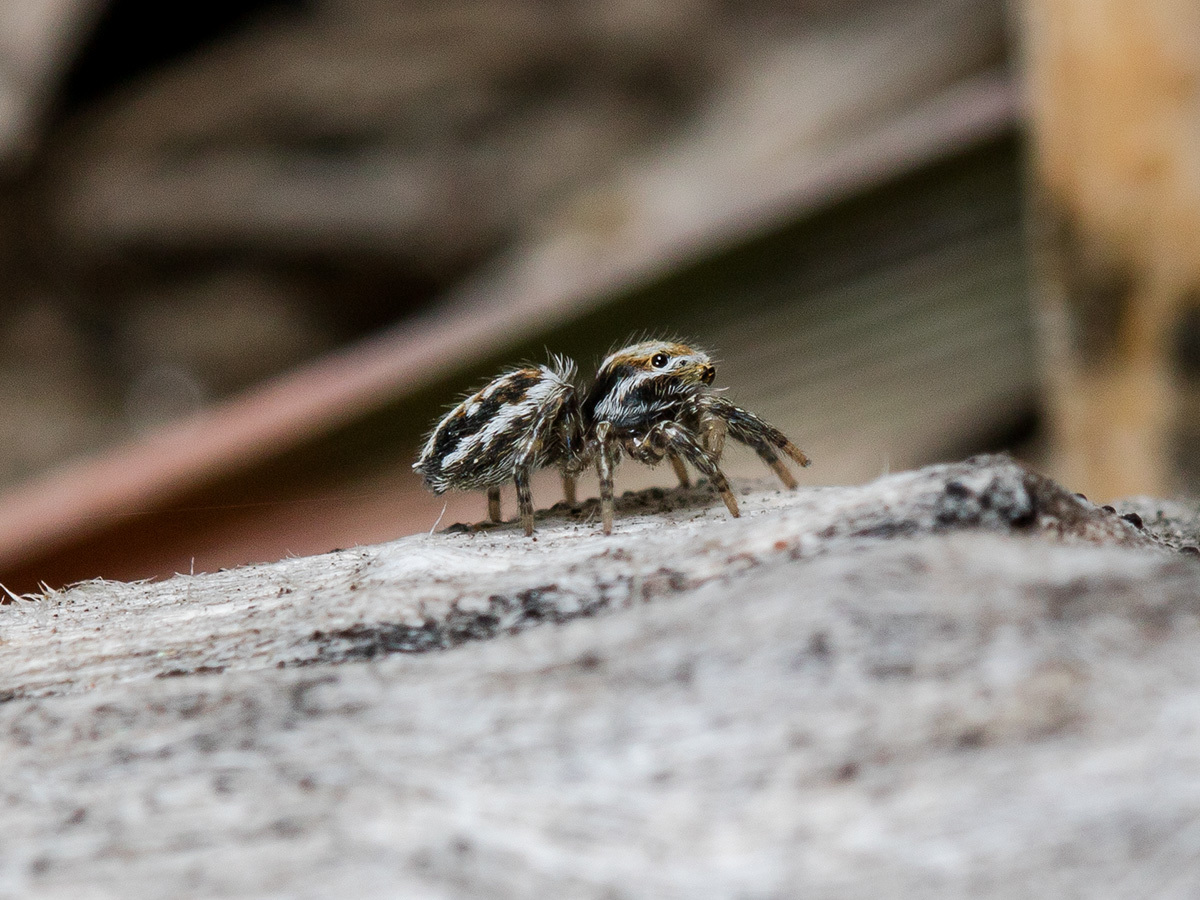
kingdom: Animalia
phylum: Arthropoda
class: Arachnida
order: Araneae
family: Salticidae
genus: Attulus
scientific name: Attulus nenilini
